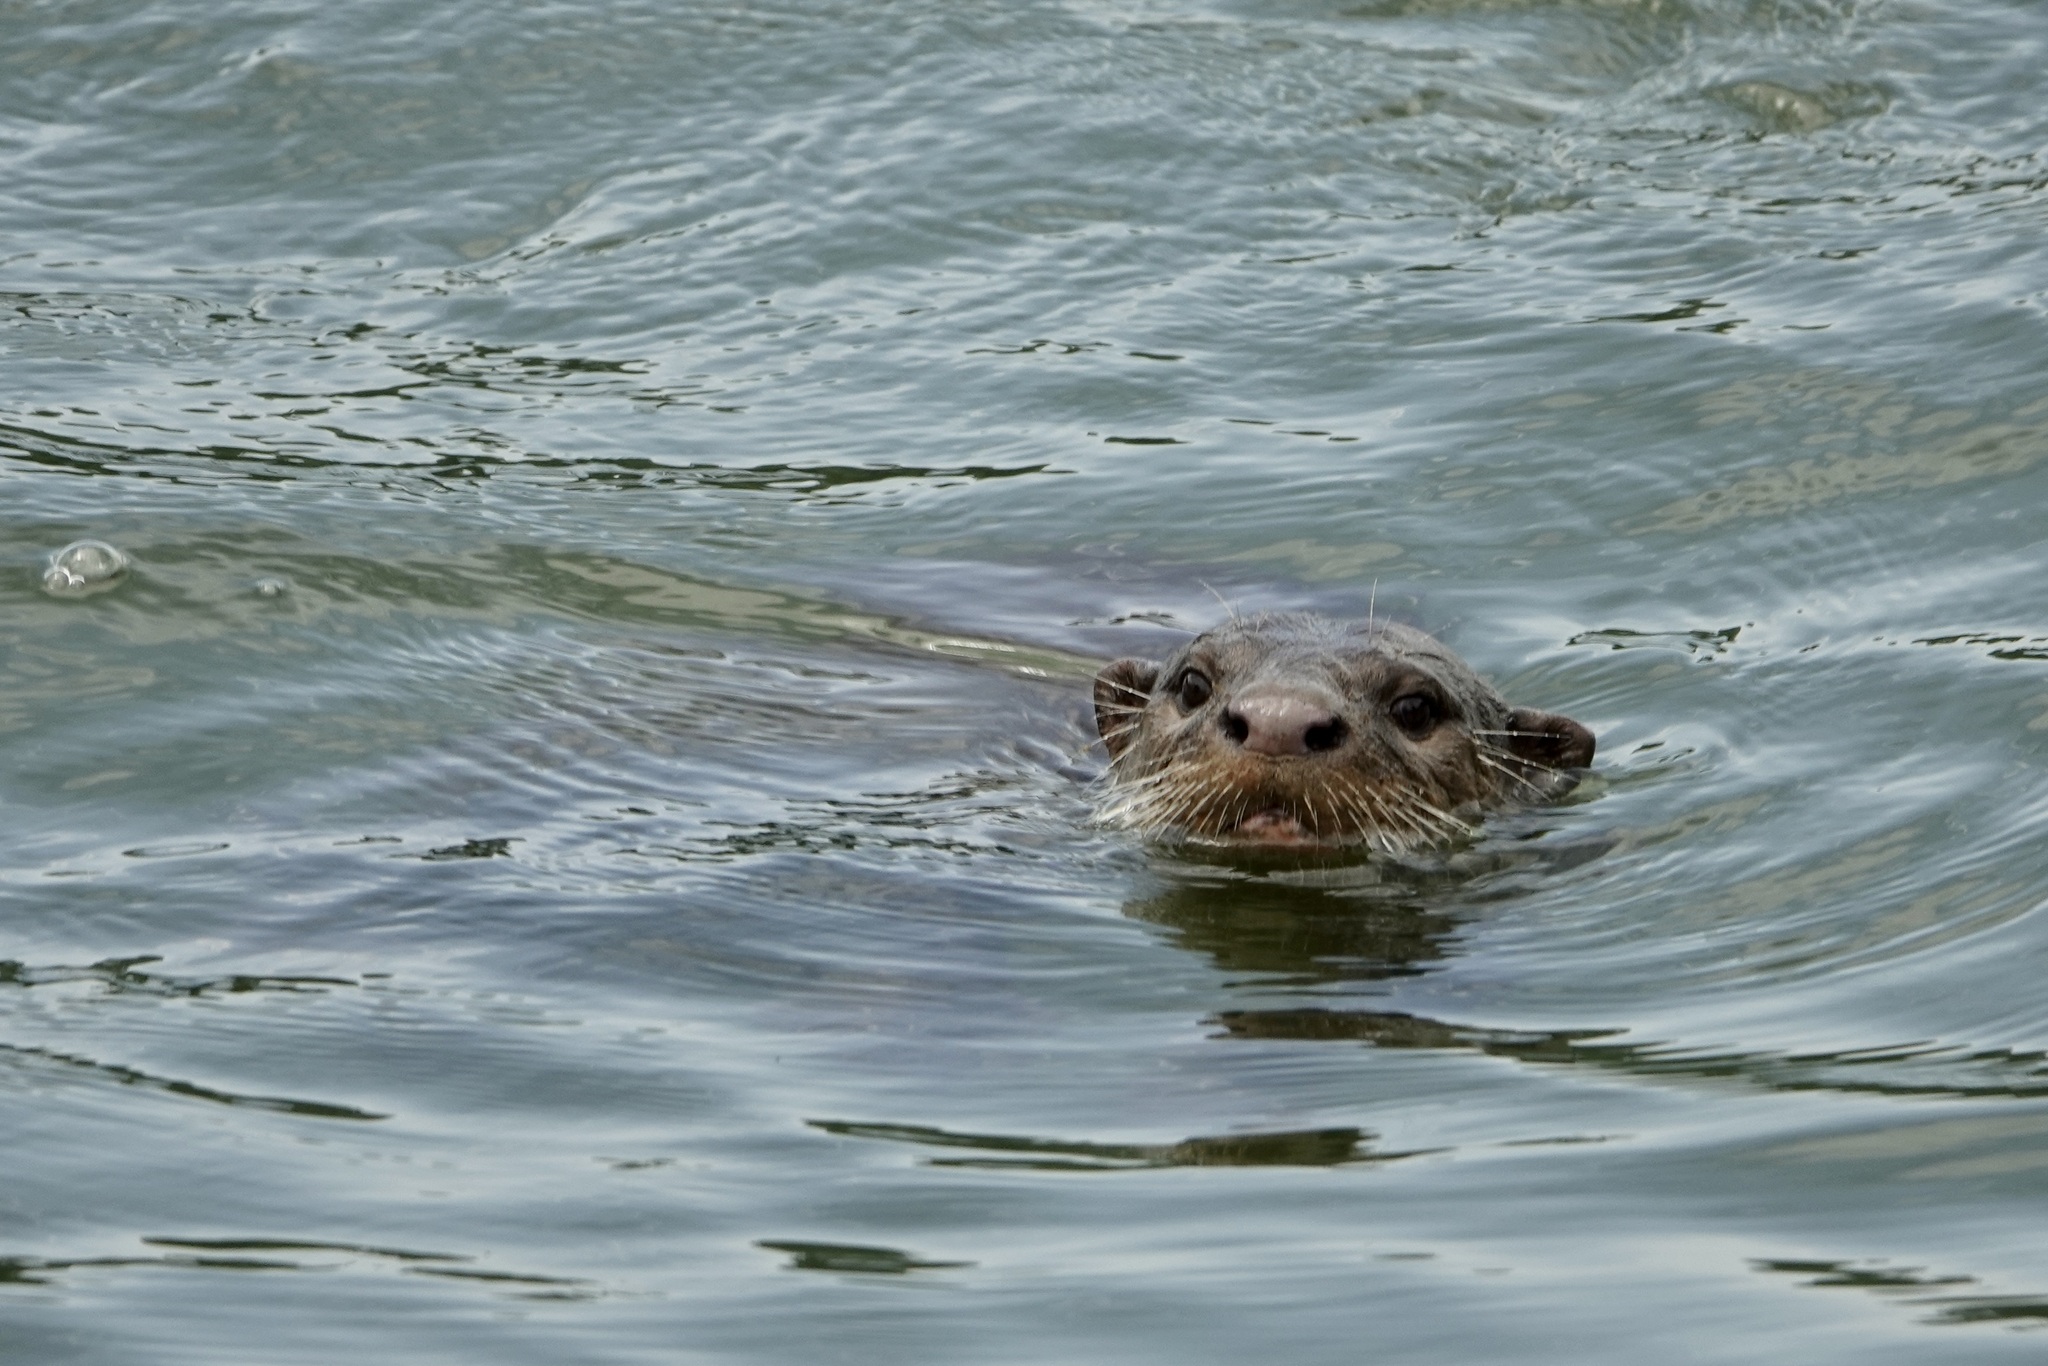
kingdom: Animalia
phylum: Chordata
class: Mammalia
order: Carnivora
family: Mustelidae
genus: Lutrogale
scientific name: Lutrogale perspicillata
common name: Smooth-coated otter
